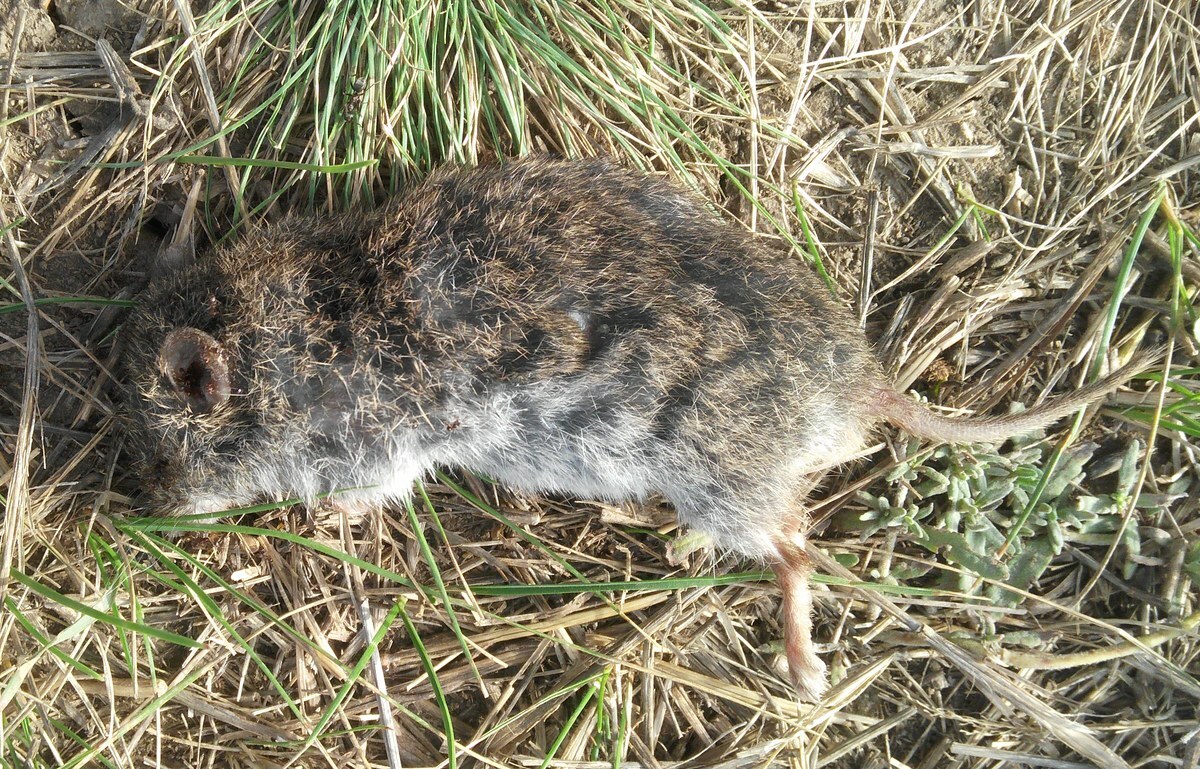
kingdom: Animalia
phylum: Chordata
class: Mammalia
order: Rodentia
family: Cricetidae
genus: Nothocricetulus
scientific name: Nothocricetulus
